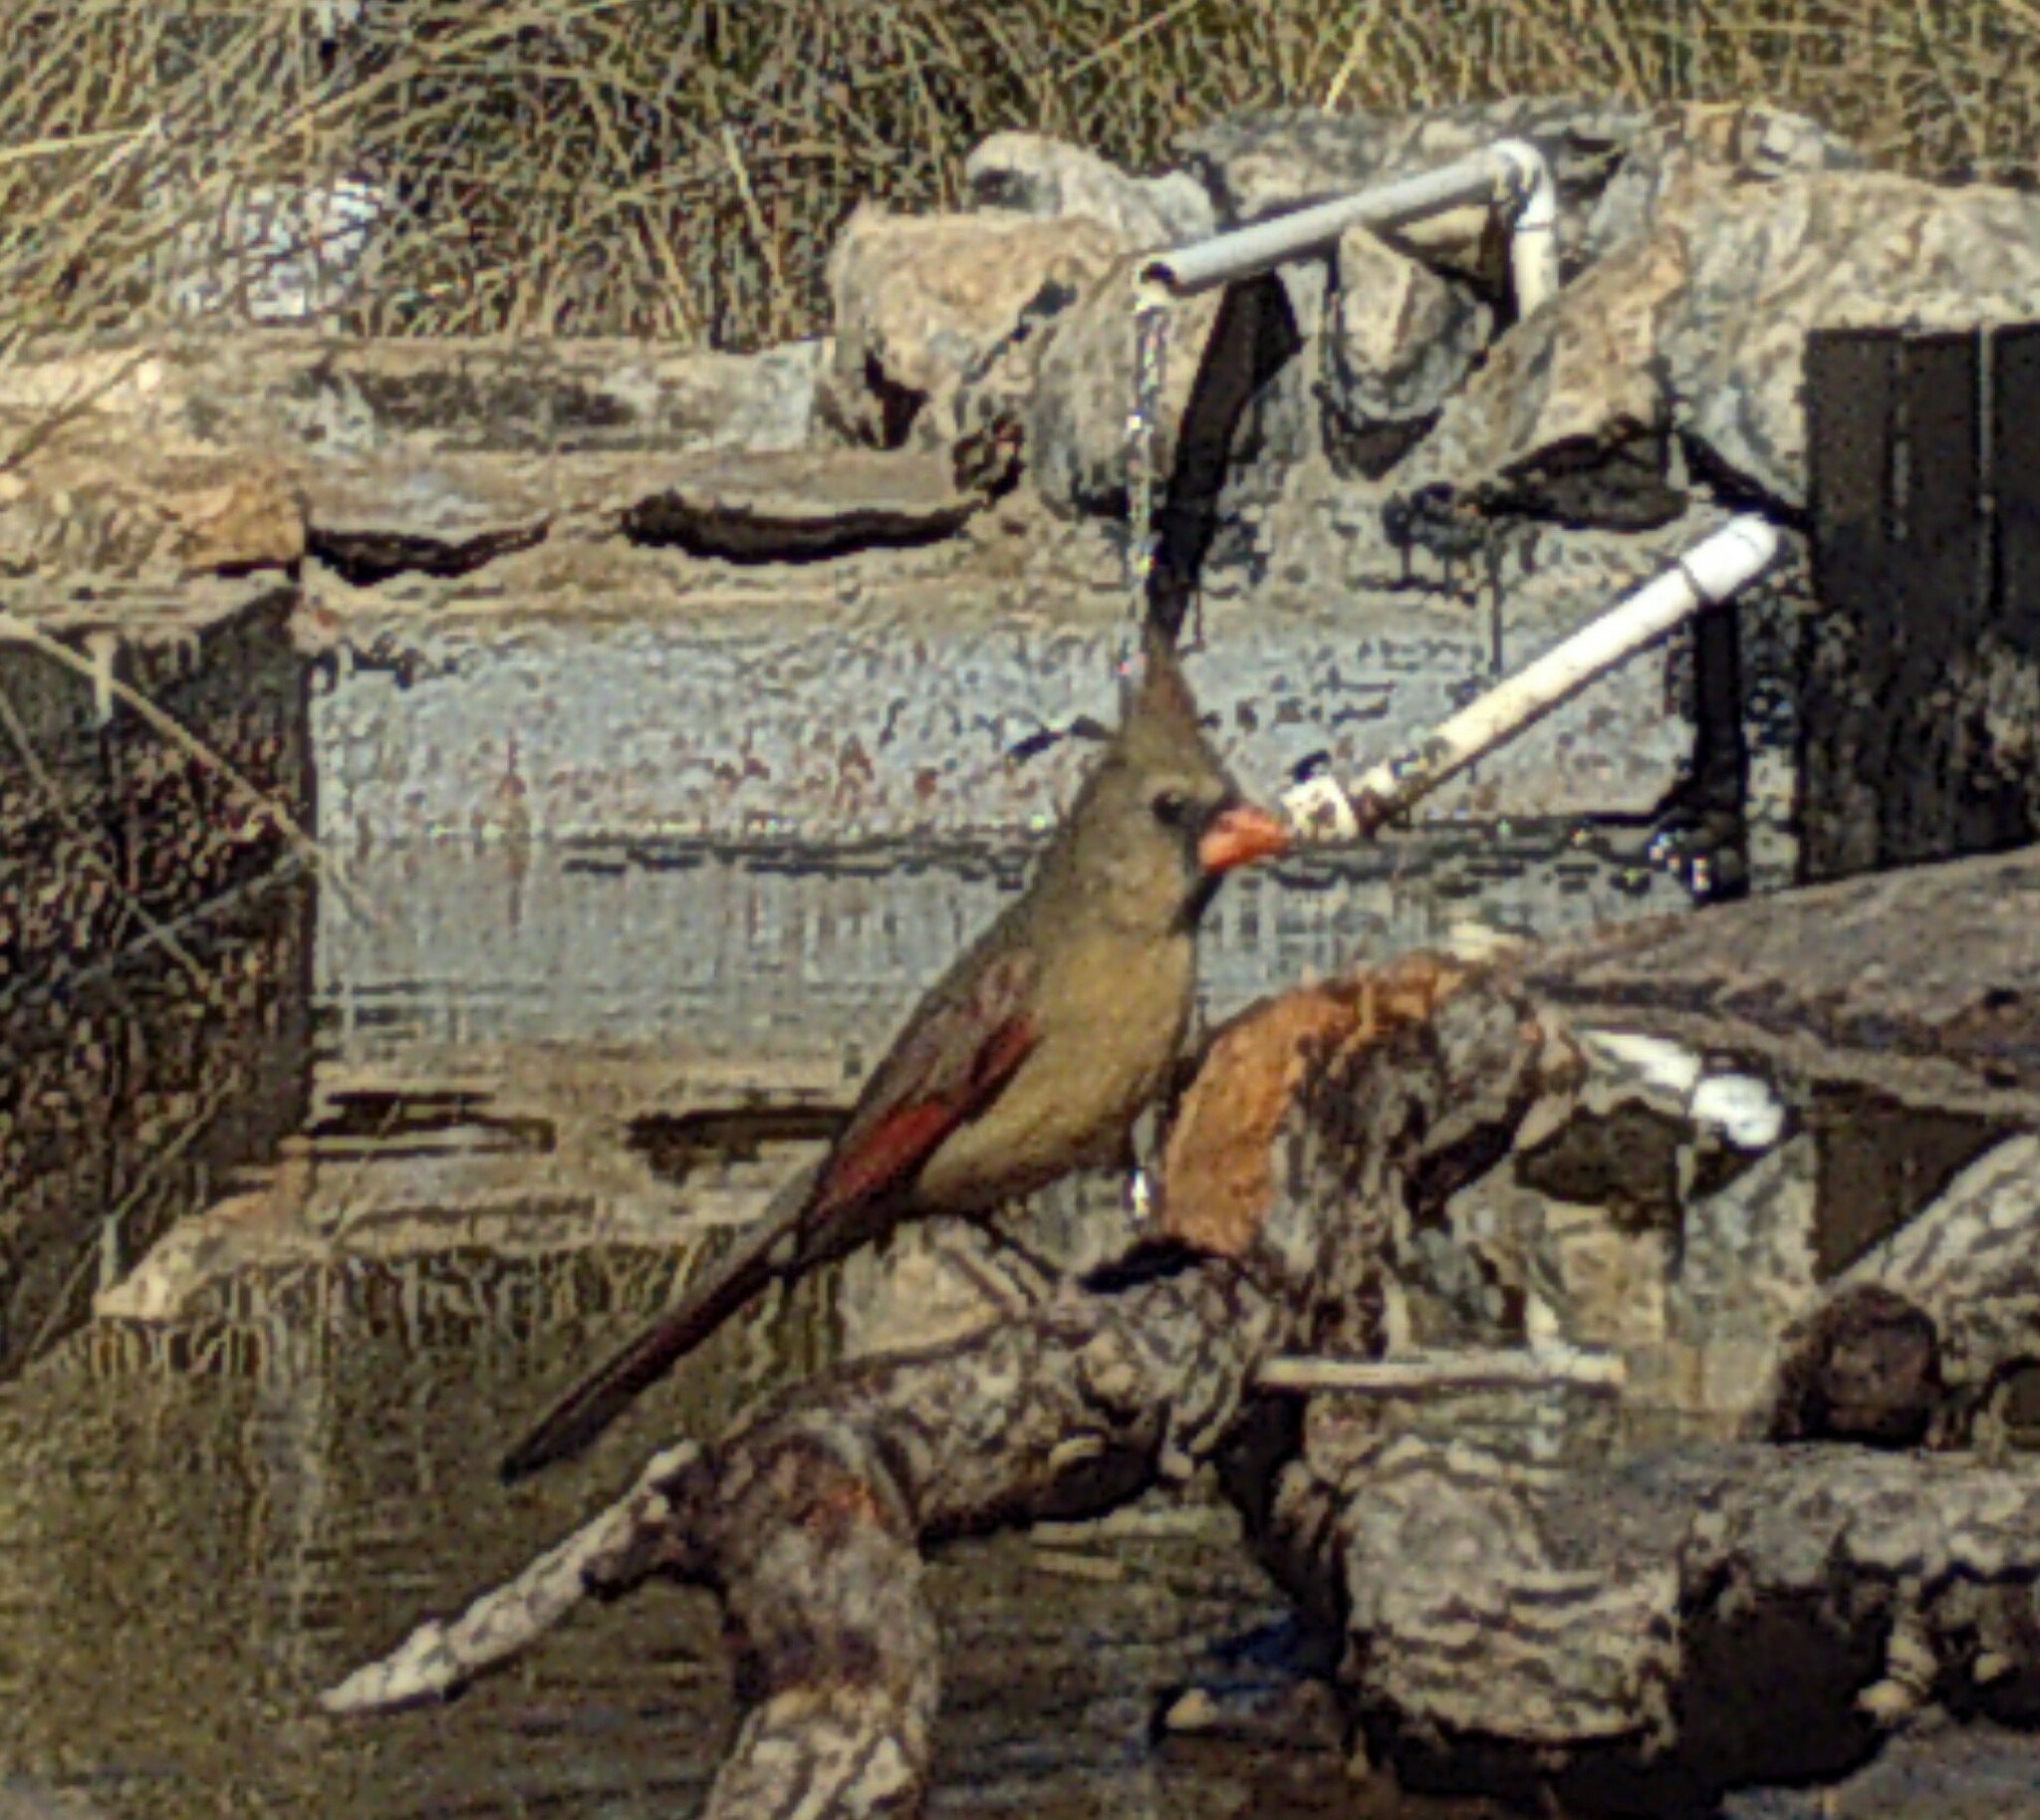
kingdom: Animalia
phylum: Chordata
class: Aves
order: Passeriformes
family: Cardinalidae
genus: Cardinalis
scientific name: Cardinalis cardinalis
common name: Northern cardinal
